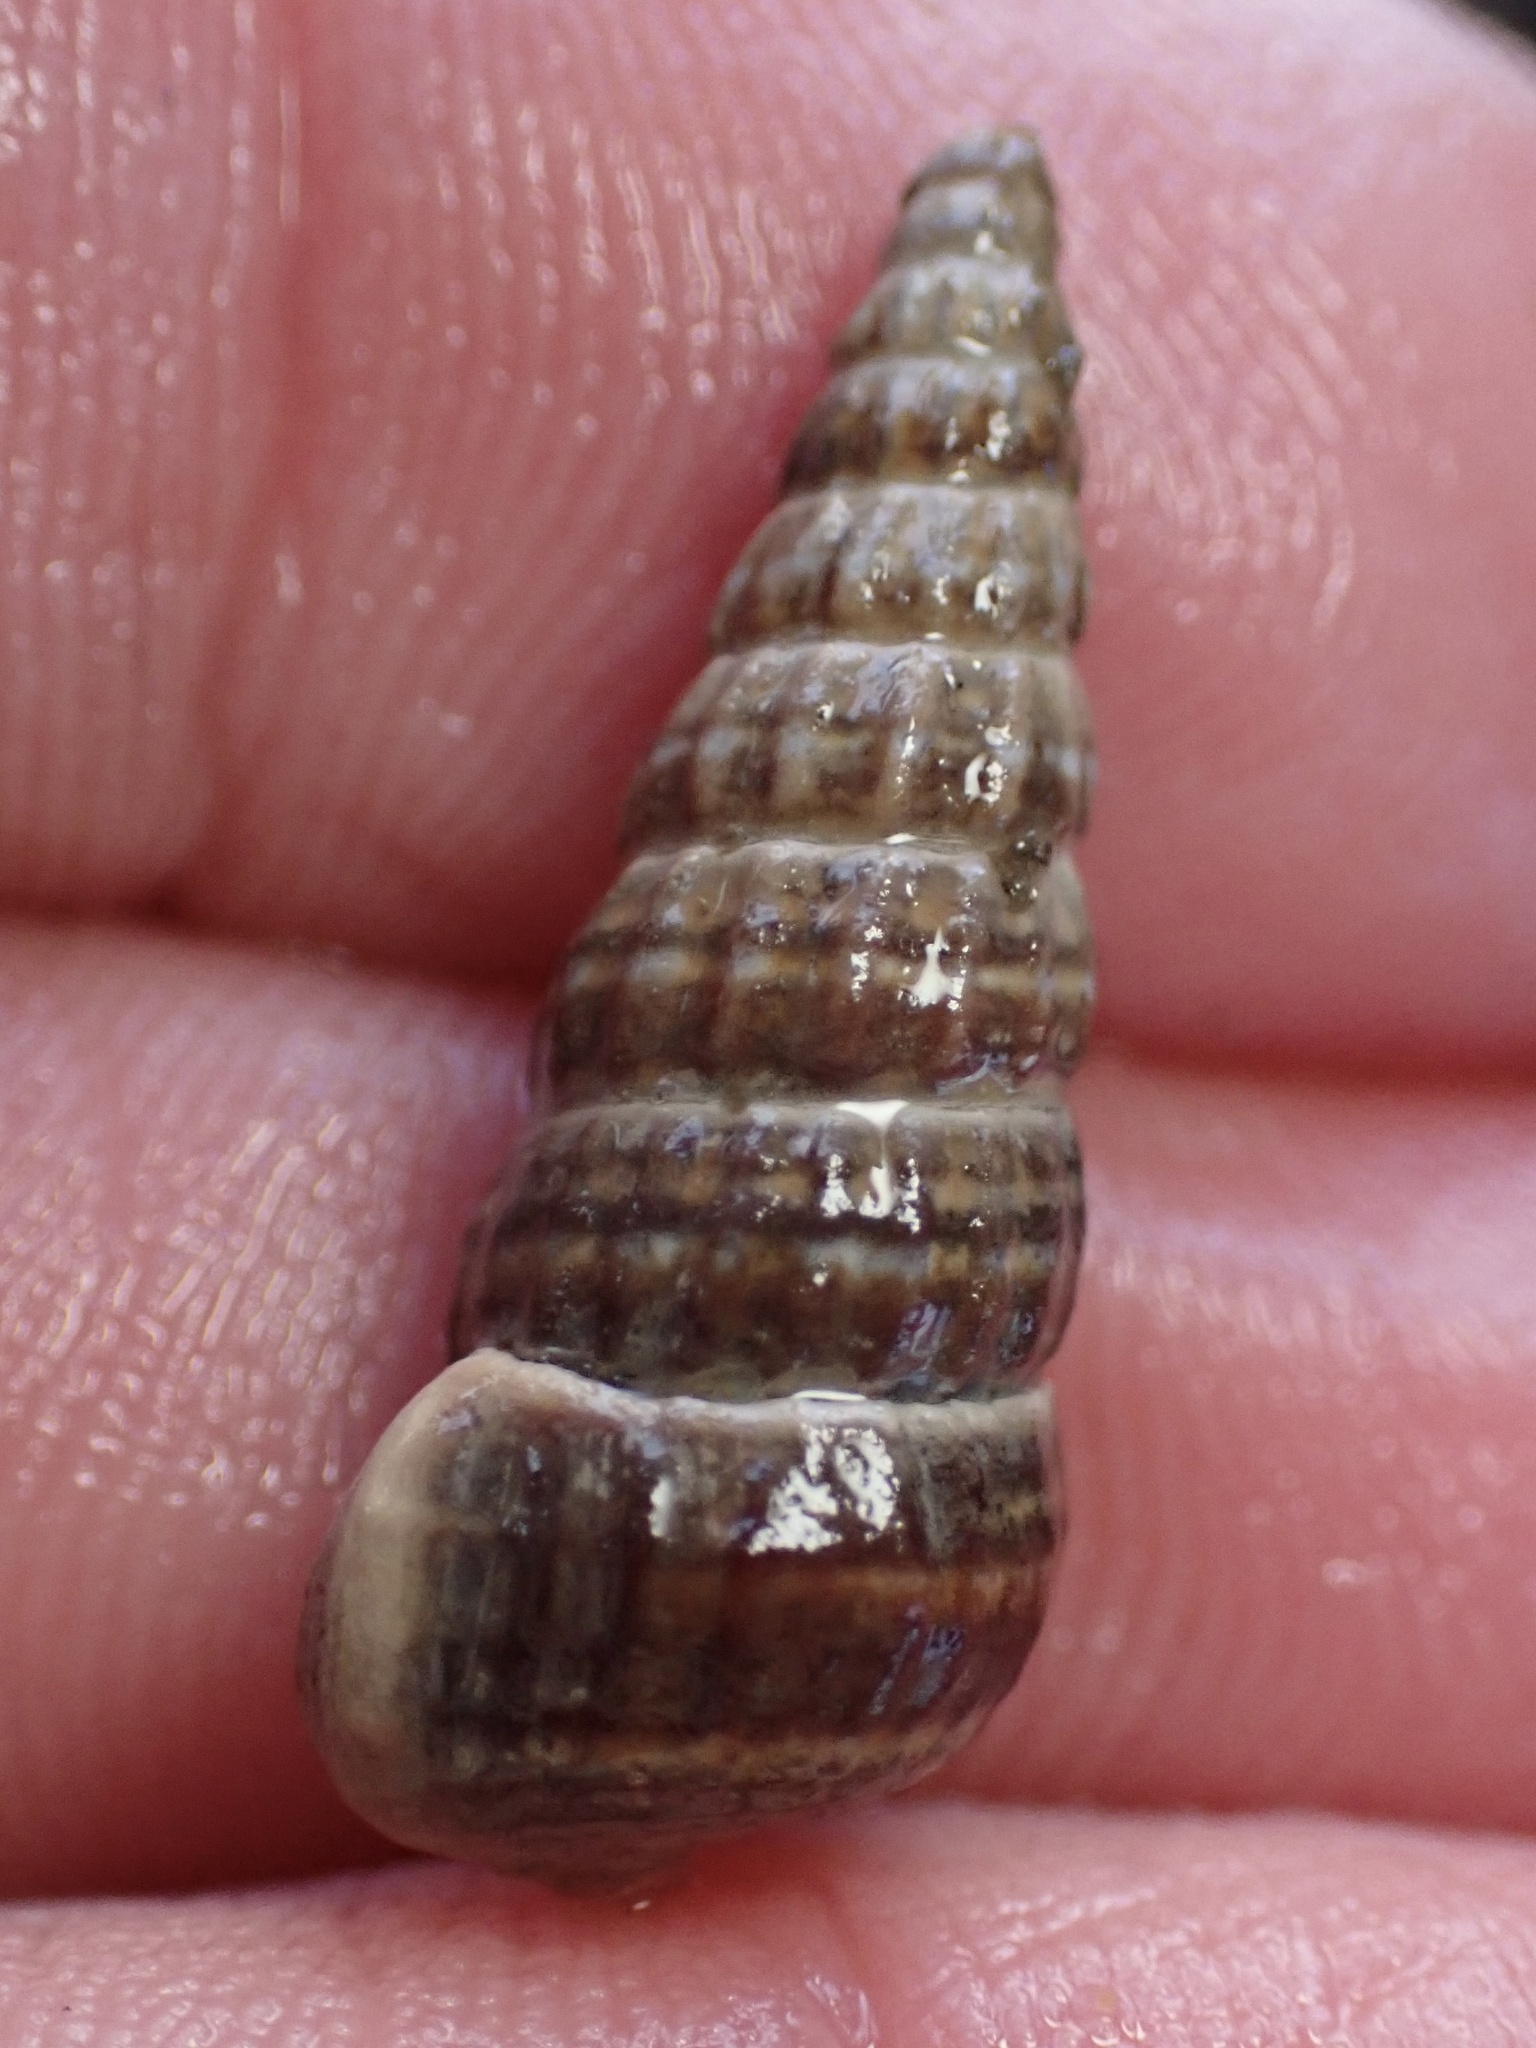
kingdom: Animalia
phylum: Mollusca
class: Gastropoda
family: Potamididae
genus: Cerithideopsis
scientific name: Cerithideopsis californica
